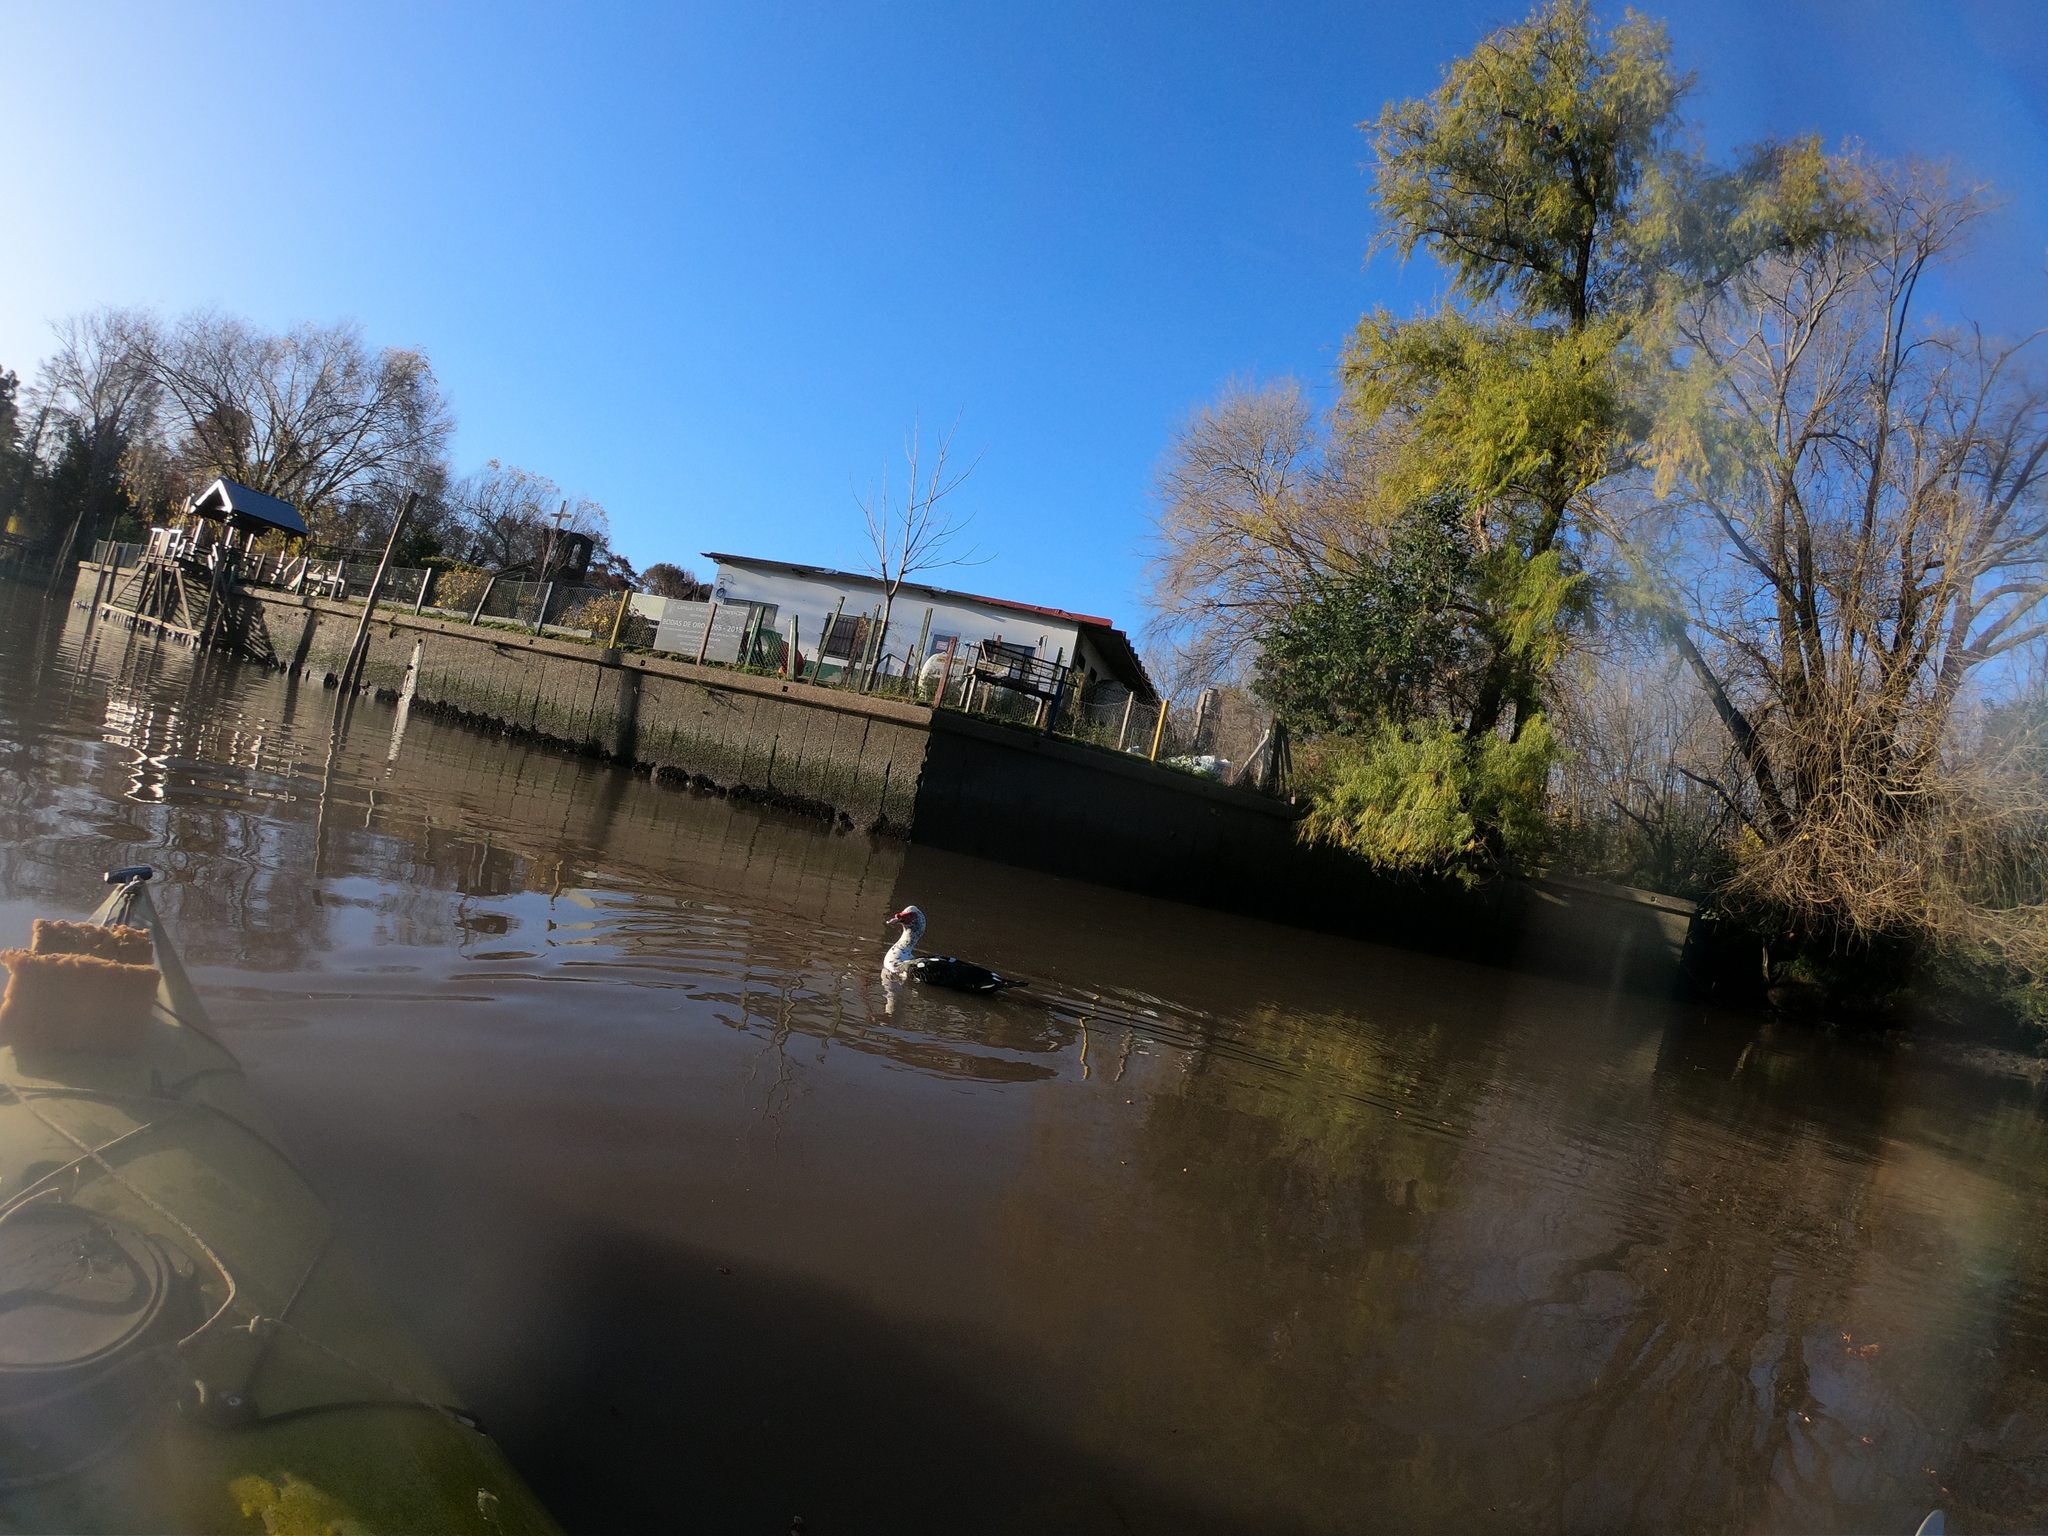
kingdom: Animalia
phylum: Chordata
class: Aves
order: Anseriformes
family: Anatidae
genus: Cairina
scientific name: Cairina moschata
